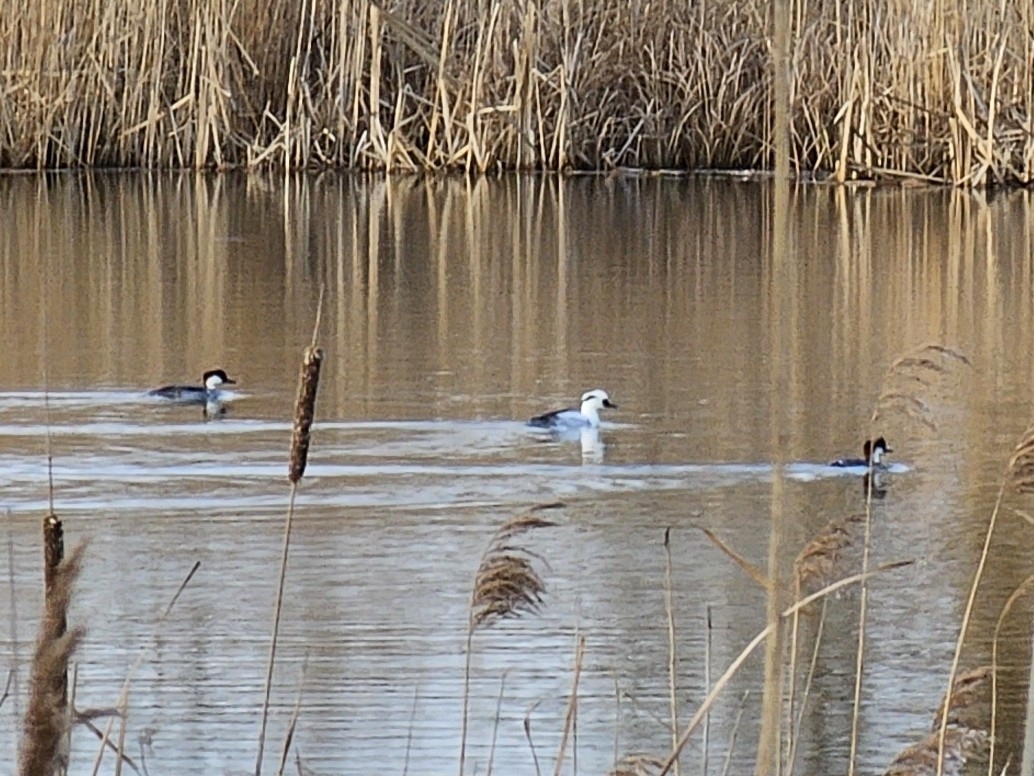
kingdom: Animalia
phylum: Chordata
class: Aves
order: Anseriformes
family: Anatidae
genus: Mergellus
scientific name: Mergellus albellus
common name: Smew
